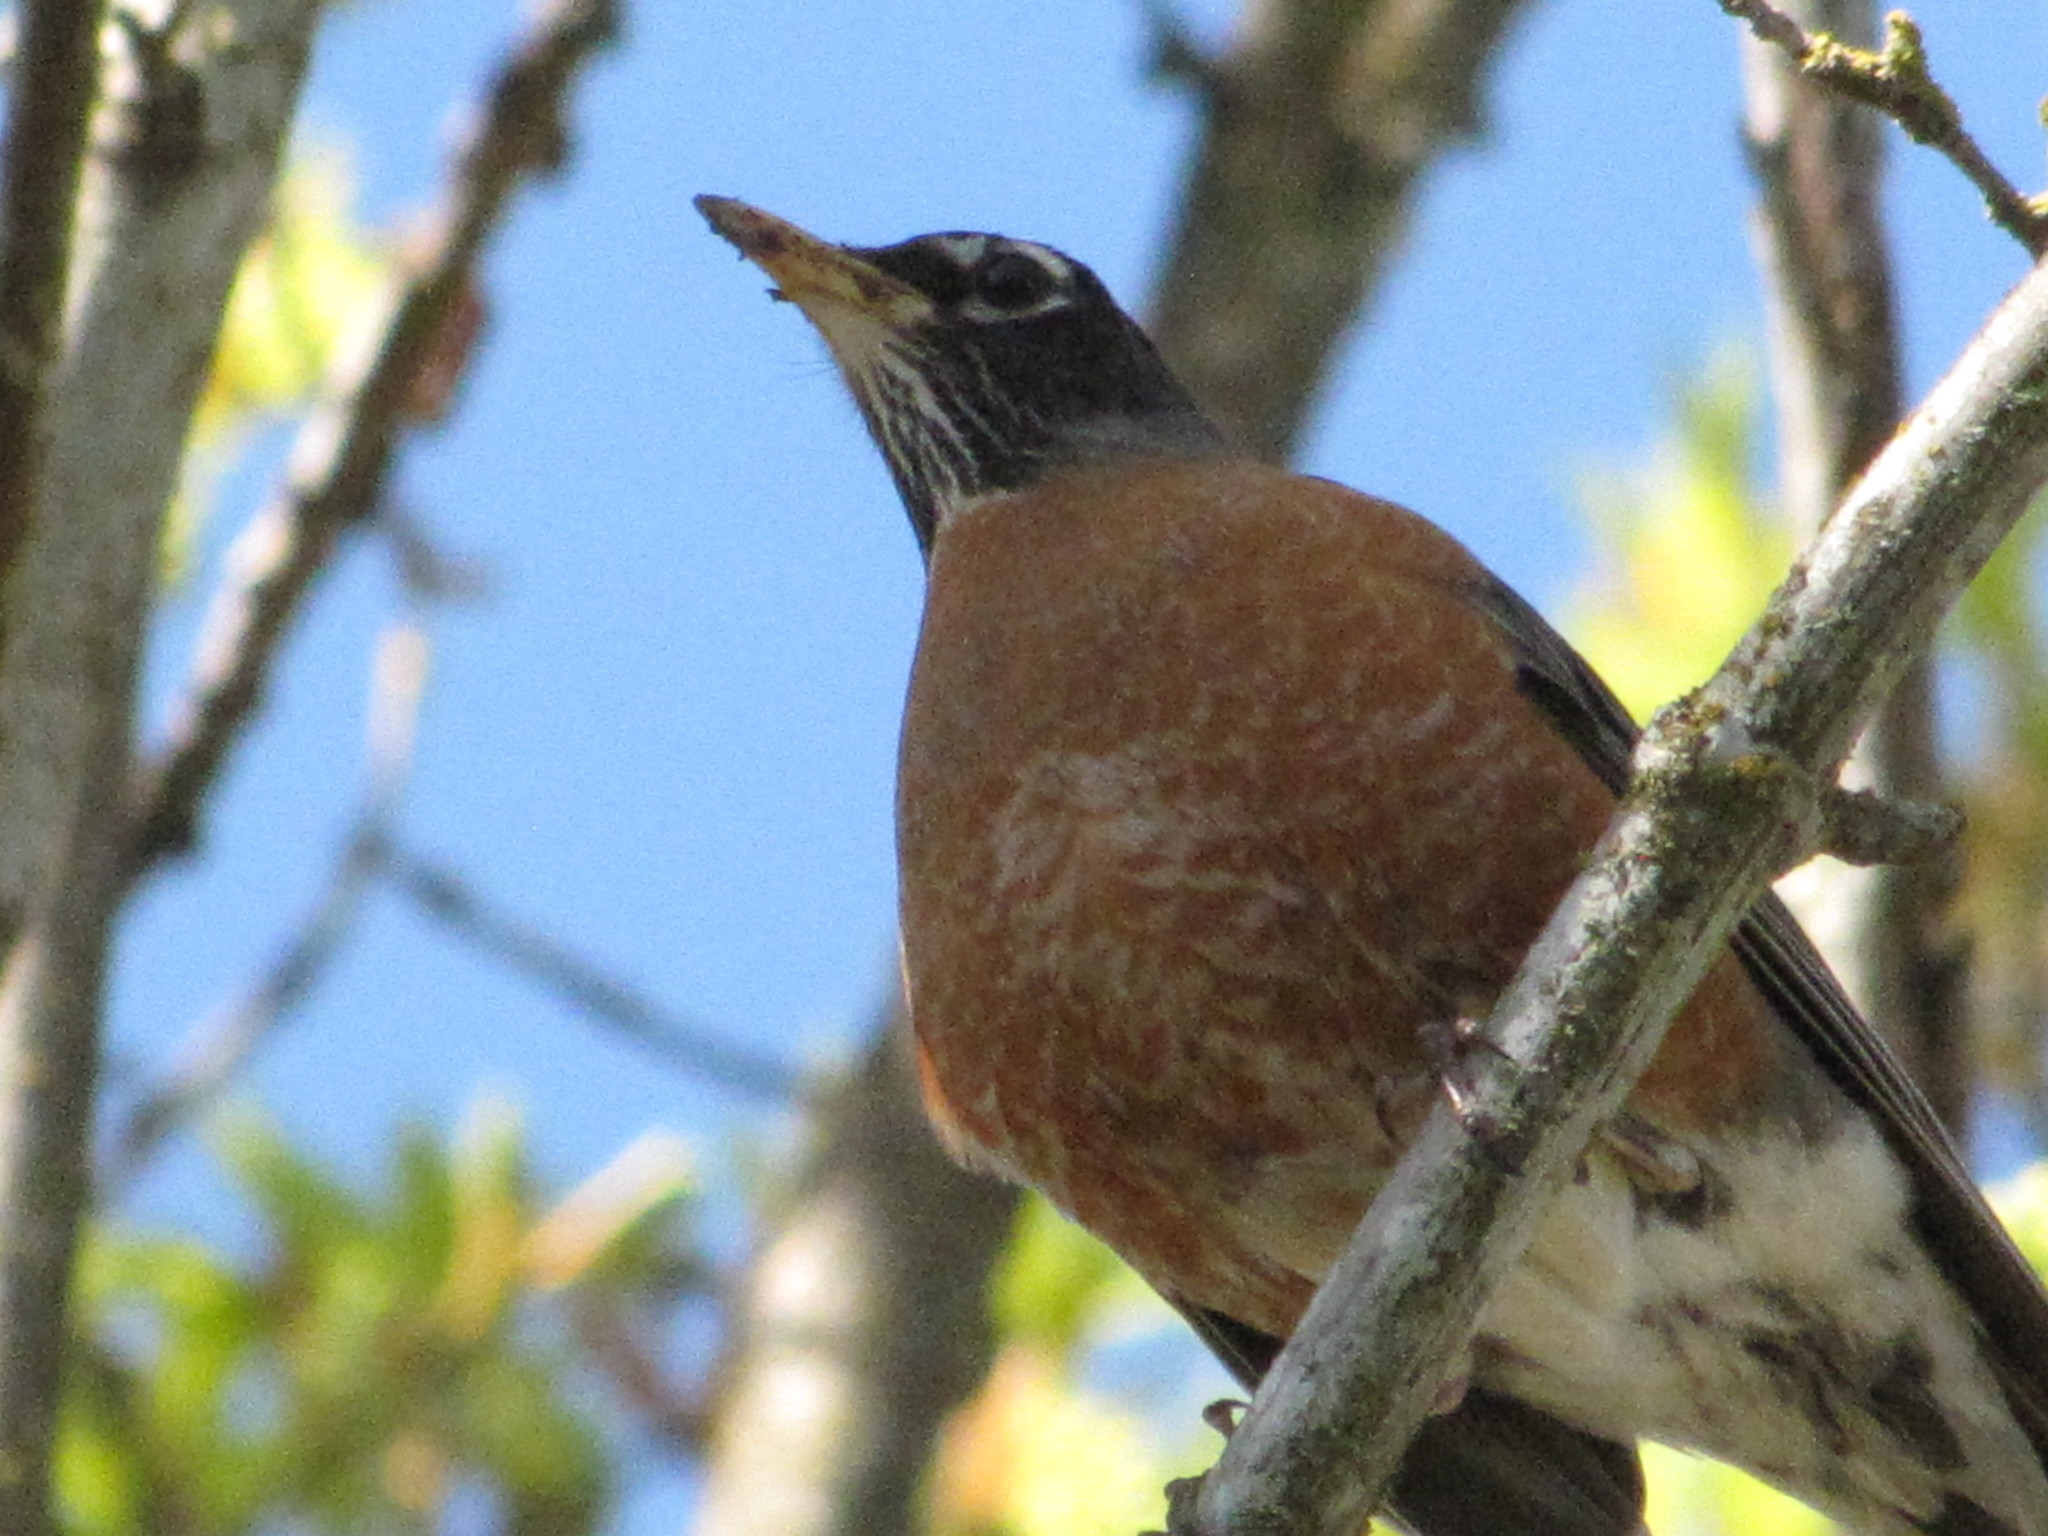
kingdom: Animalia
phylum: Chordata
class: Aves
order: Passeriformes
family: Turdidae
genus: Turdus
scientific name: Turdus migratorius
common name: American robin
